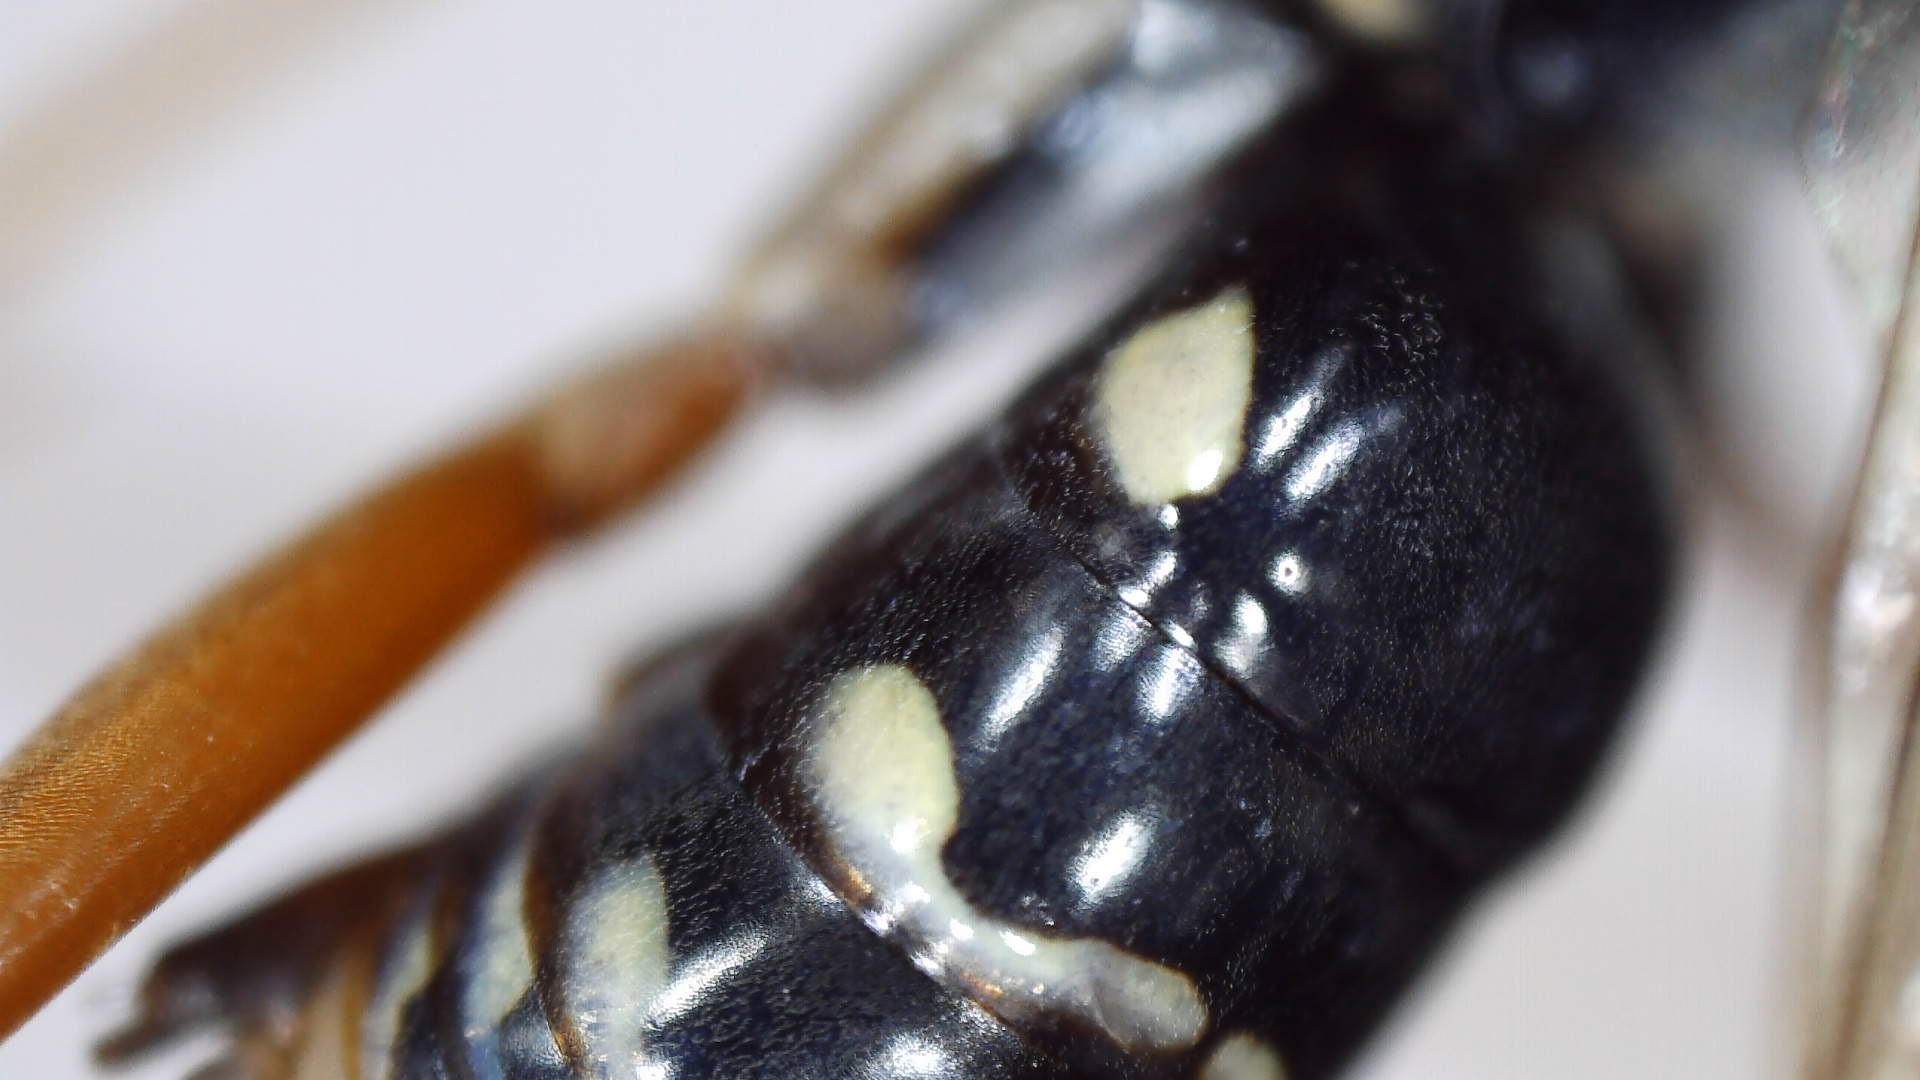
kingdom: Animalia
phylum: Arthropoda
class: Insecta
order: Hymenoptera
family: Pompilidae
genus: Ceropales
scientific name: Ceropales longipes
